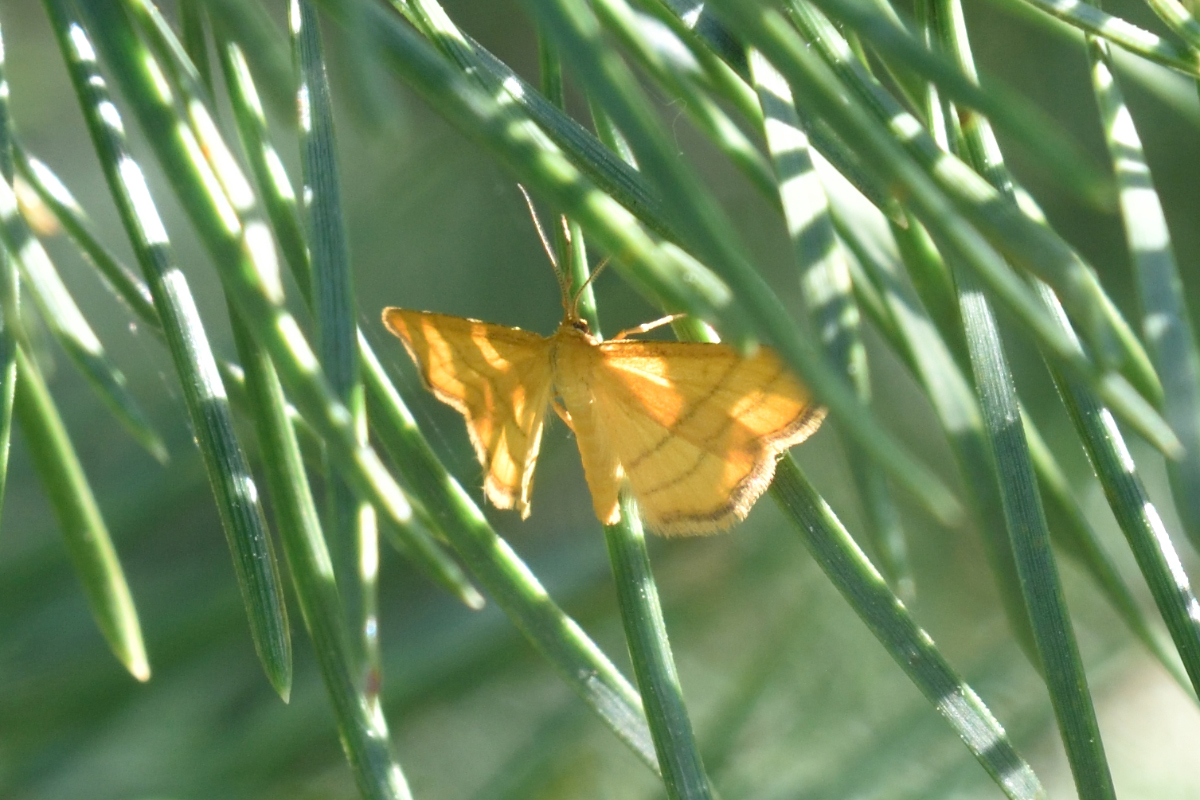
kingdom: Animalia
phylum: Arthropoda
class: Insecta
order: Lepidoptera
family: Geometridae
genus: Idaea
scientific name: Idaea aureolaria
